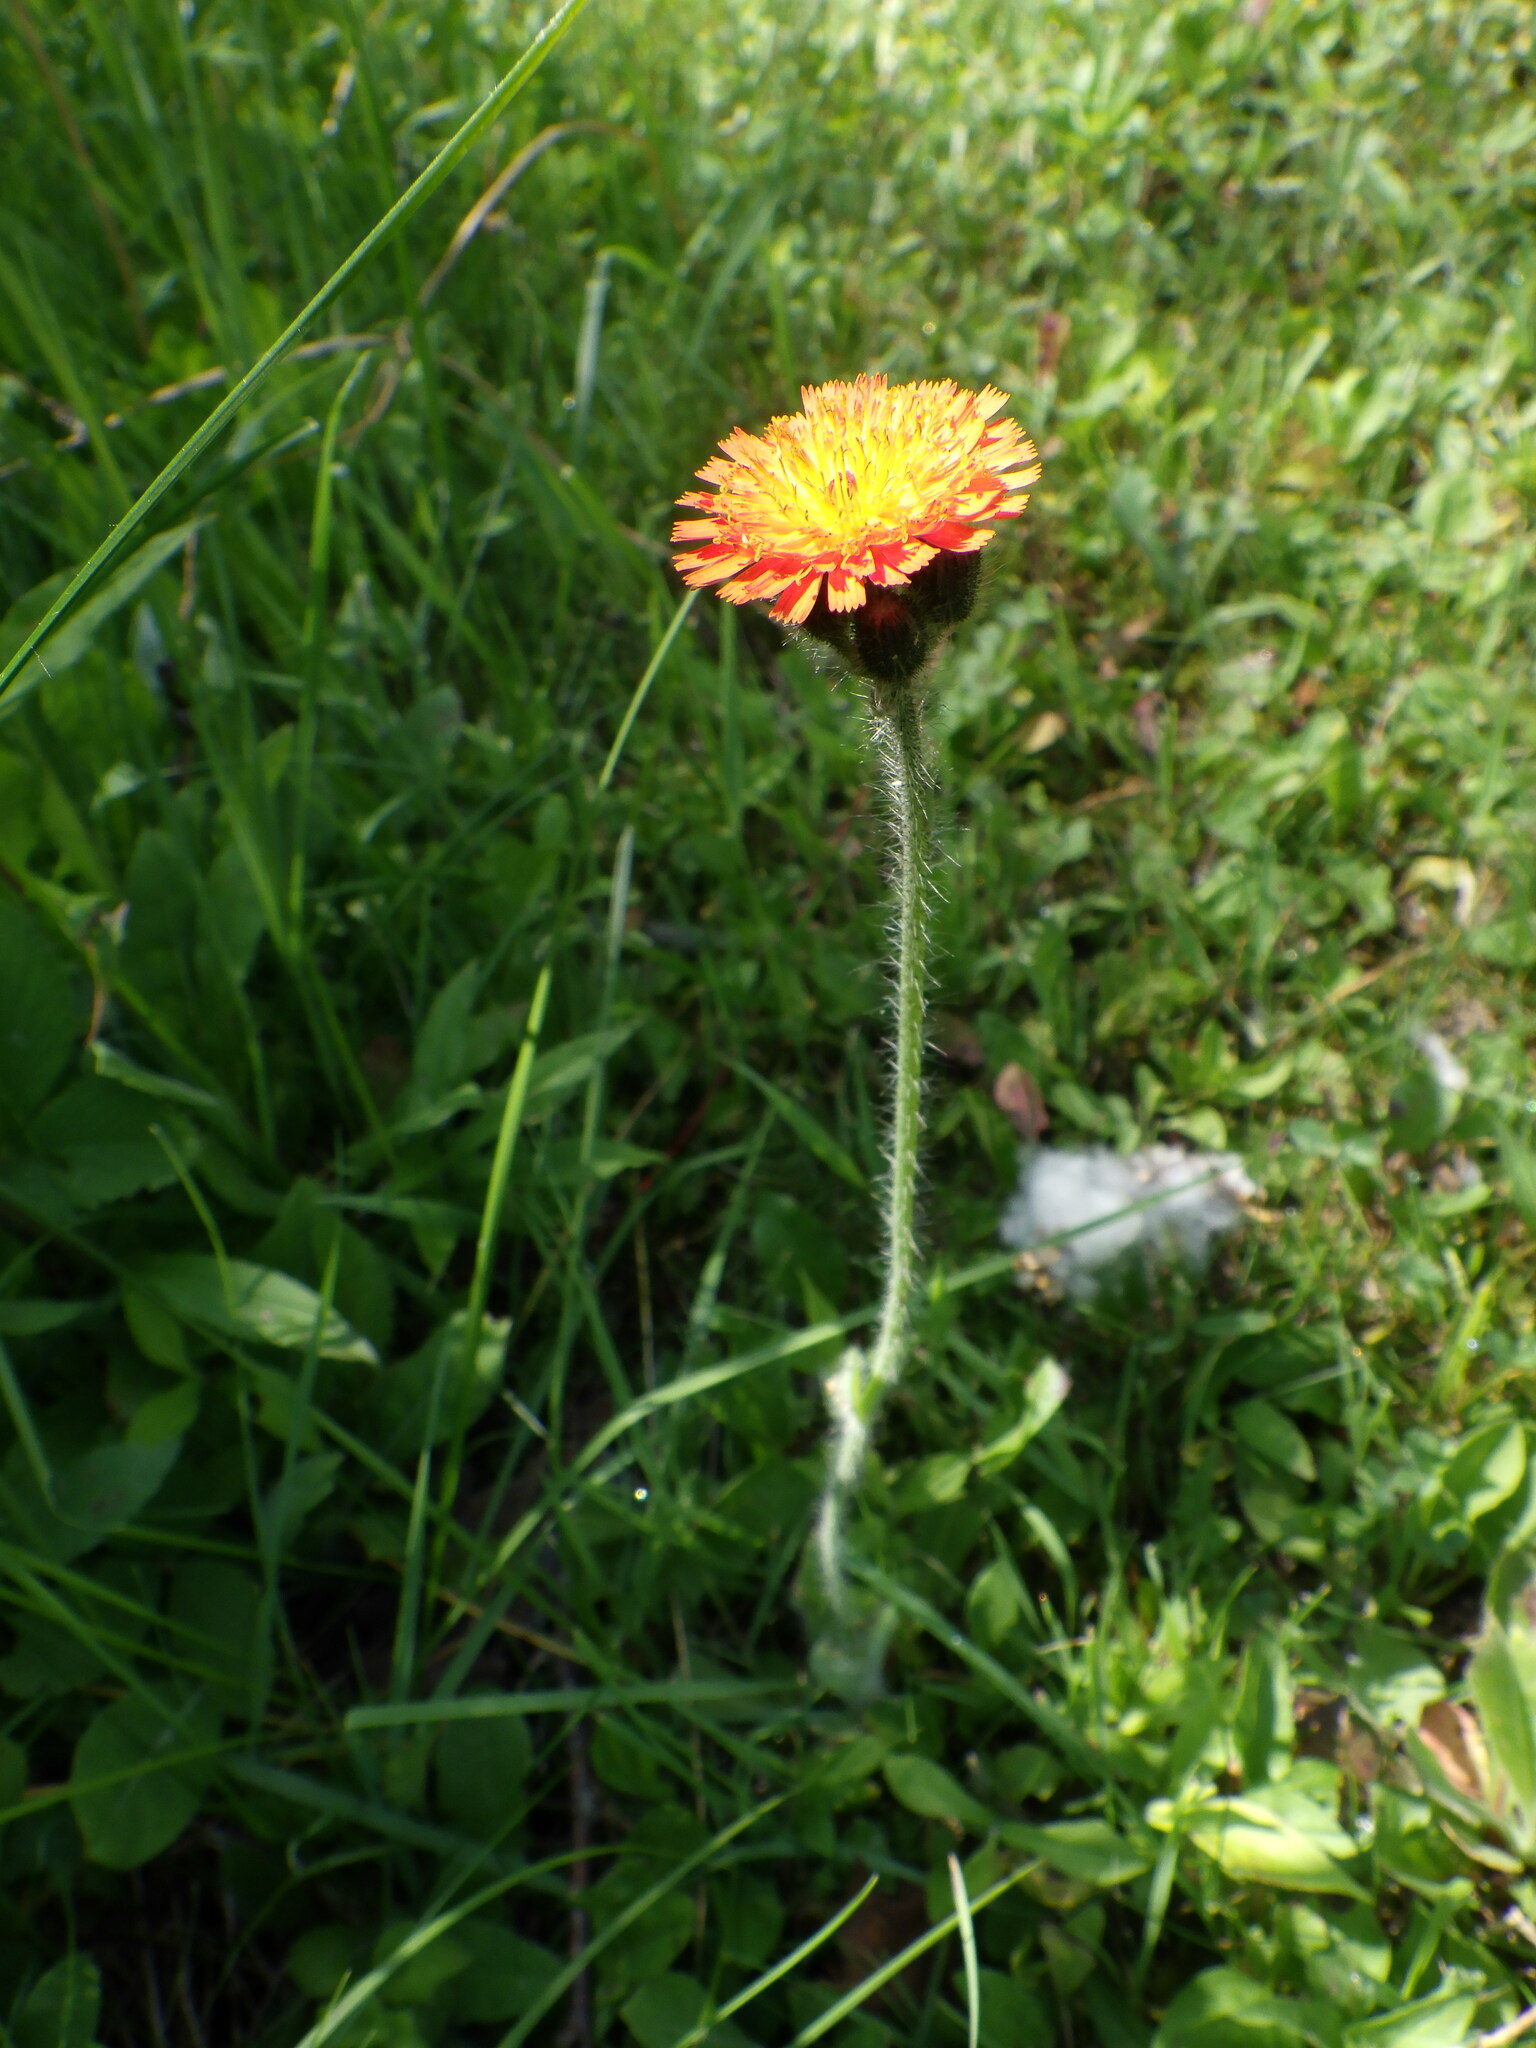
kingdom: Plantae
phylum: Tracheophyta
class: Magnoliopsida
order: Asterales
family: Asteraceae
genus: Pilosella
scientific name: Pilosella aurantiaca
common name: Fox-and-cubs
